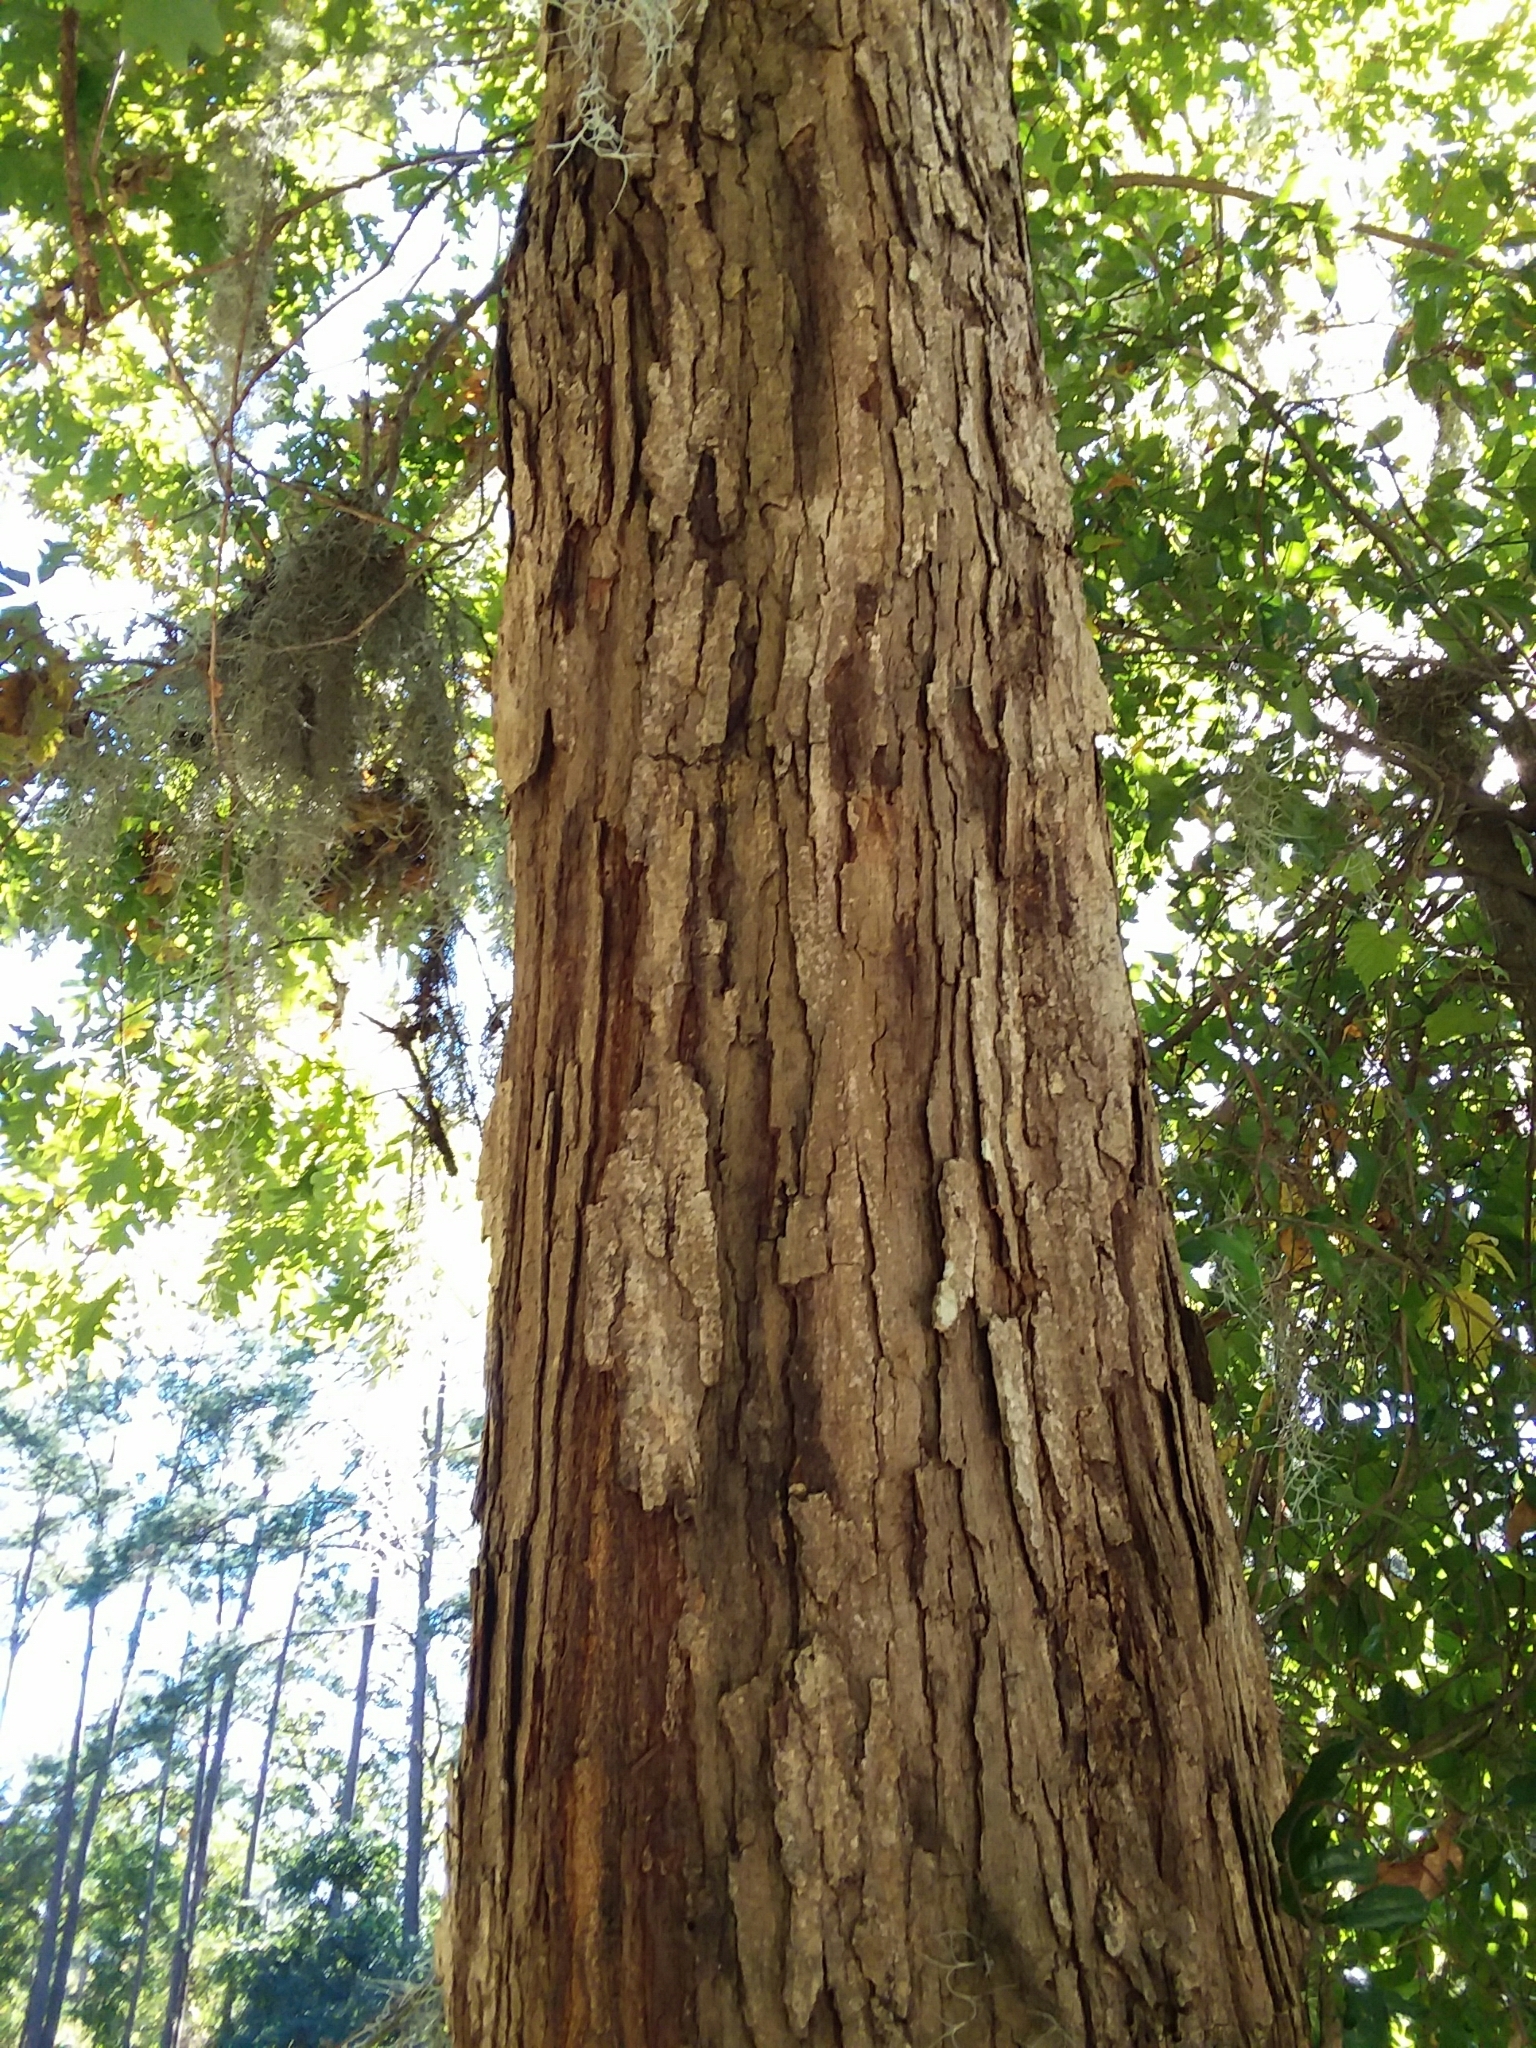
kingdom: Plantae
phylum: Tracheophyta
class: Magnoliopsida
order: Fagales
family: Fagaceae
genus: Quercus
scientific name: Quercus alba
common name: White oak
